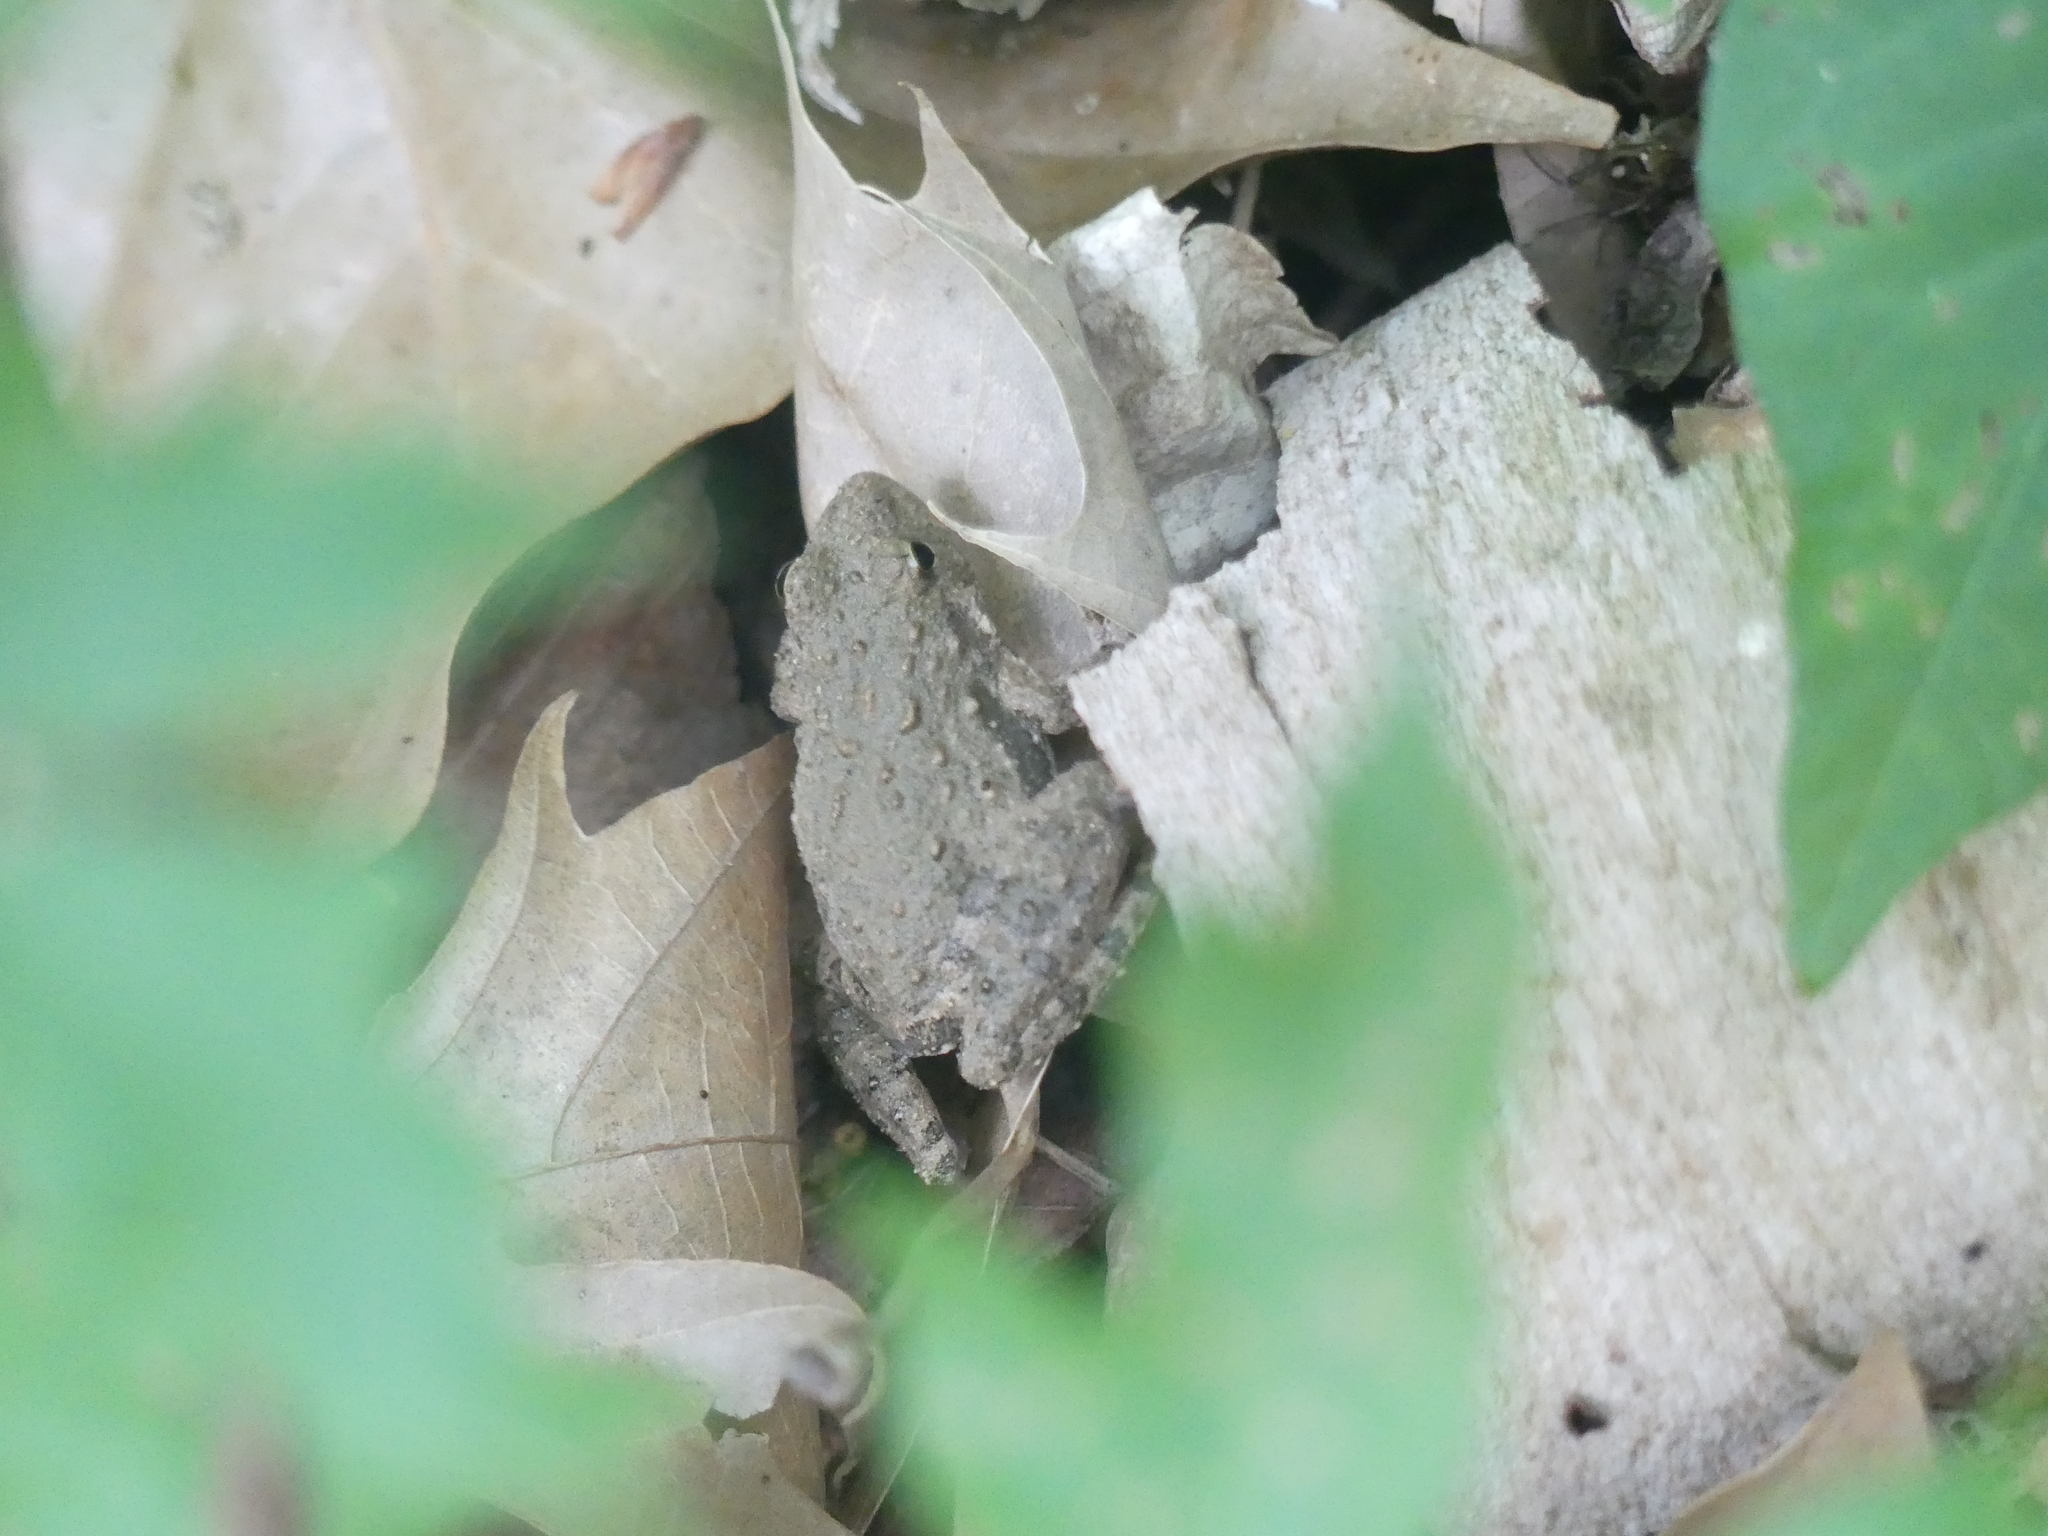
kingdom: Animalia
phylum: Chordata
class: Amphibia
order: Anura
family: Hylidae
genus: Acris
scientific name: Acris blanchardi
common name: Blanchard's cricket frog
